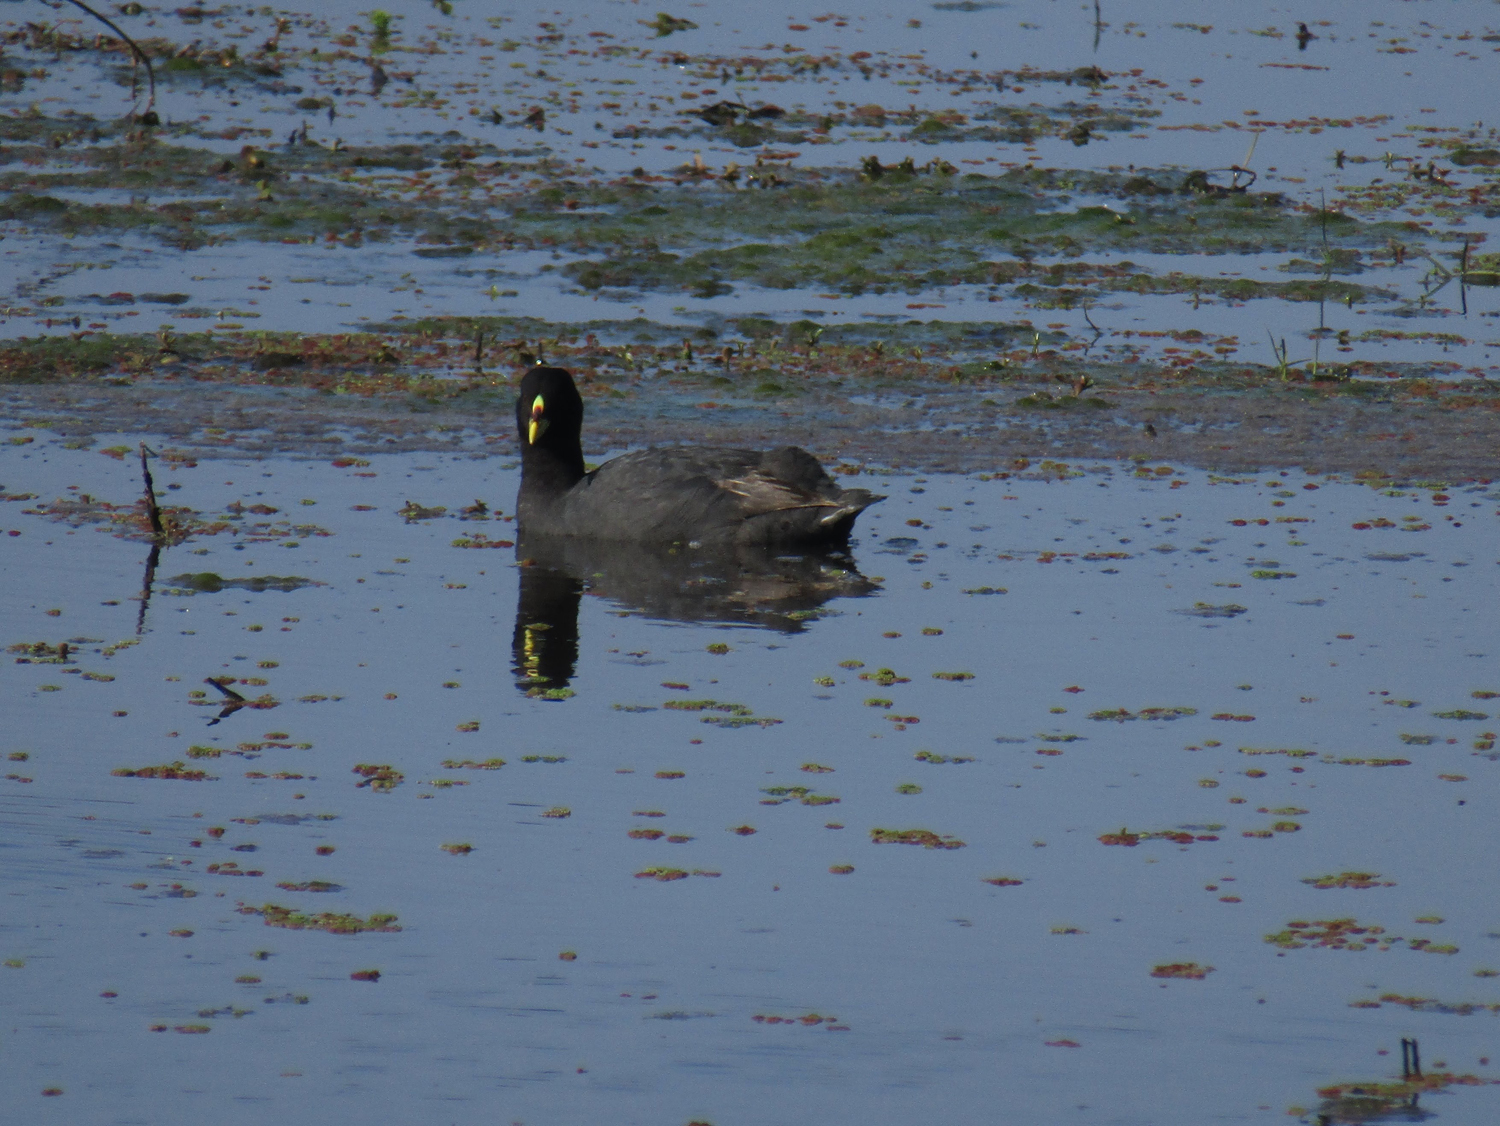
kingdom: Animalia
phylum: Chordata
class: Aves
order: Gruiformes
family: Rallidae
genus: Fulica
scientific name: Fulica armillata
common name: Red-gartered coot
